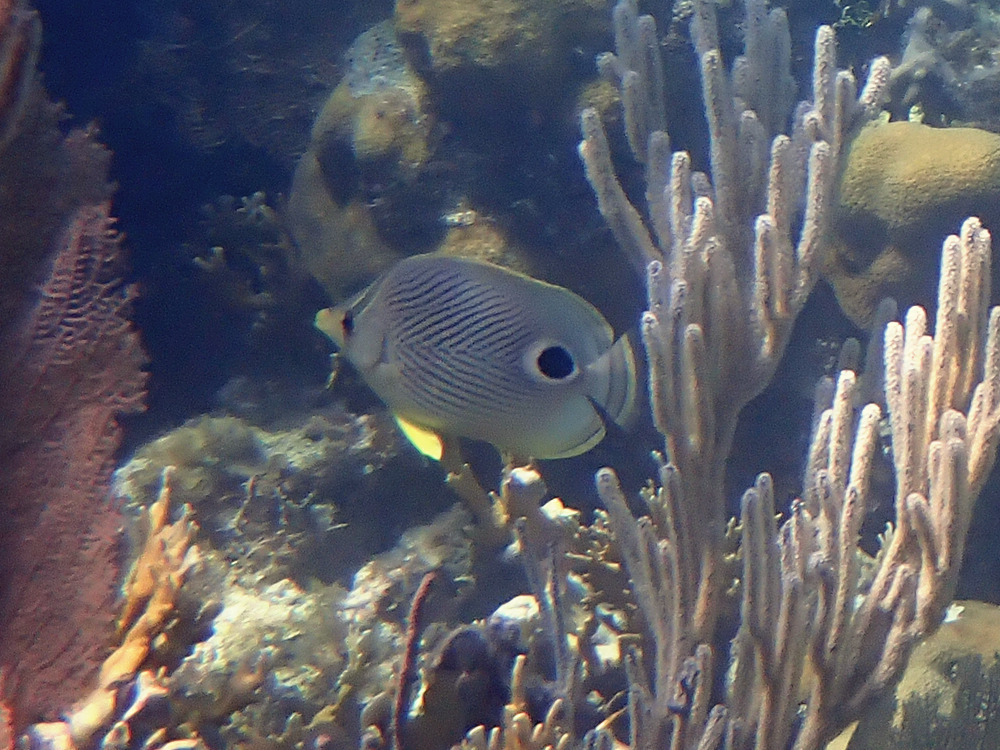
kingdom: Animalia
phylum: Chordata
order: Perciformes
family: Chaetodontidae
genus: Chaetodon
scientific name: Chaetodon capistratus
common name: Kete
